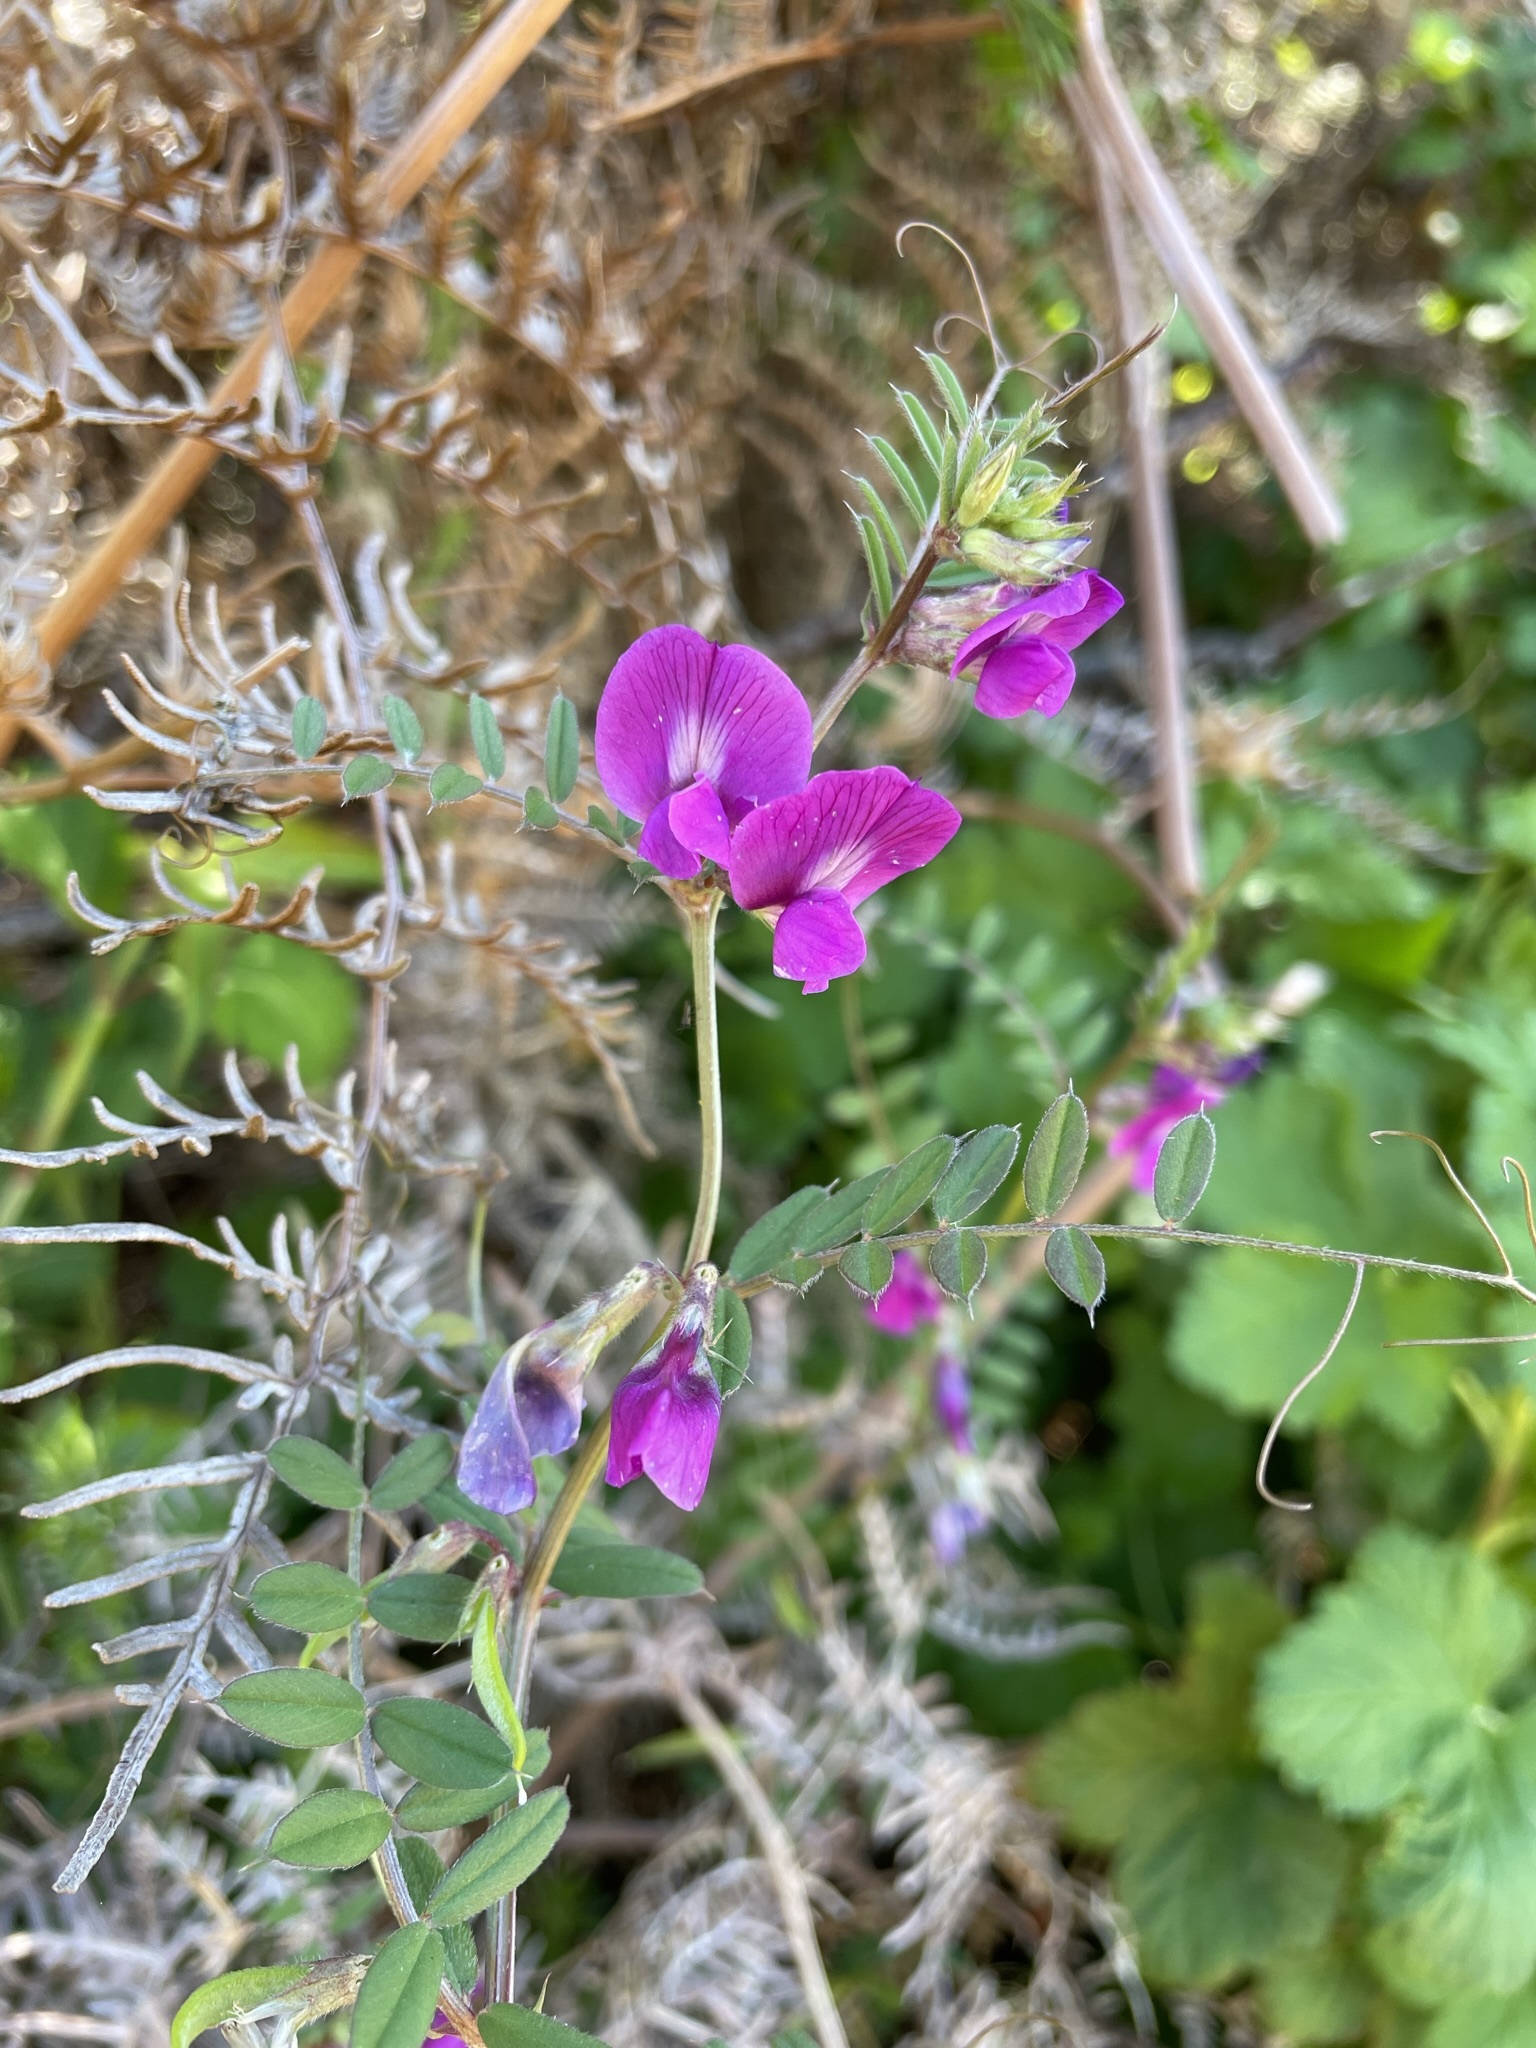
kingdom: Plantae
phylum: Tracheophyta
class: Magnoliopsida
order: Fabales
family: Fabaceae
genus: Vicia
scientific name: Vicia sativa
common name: Garden vetch
